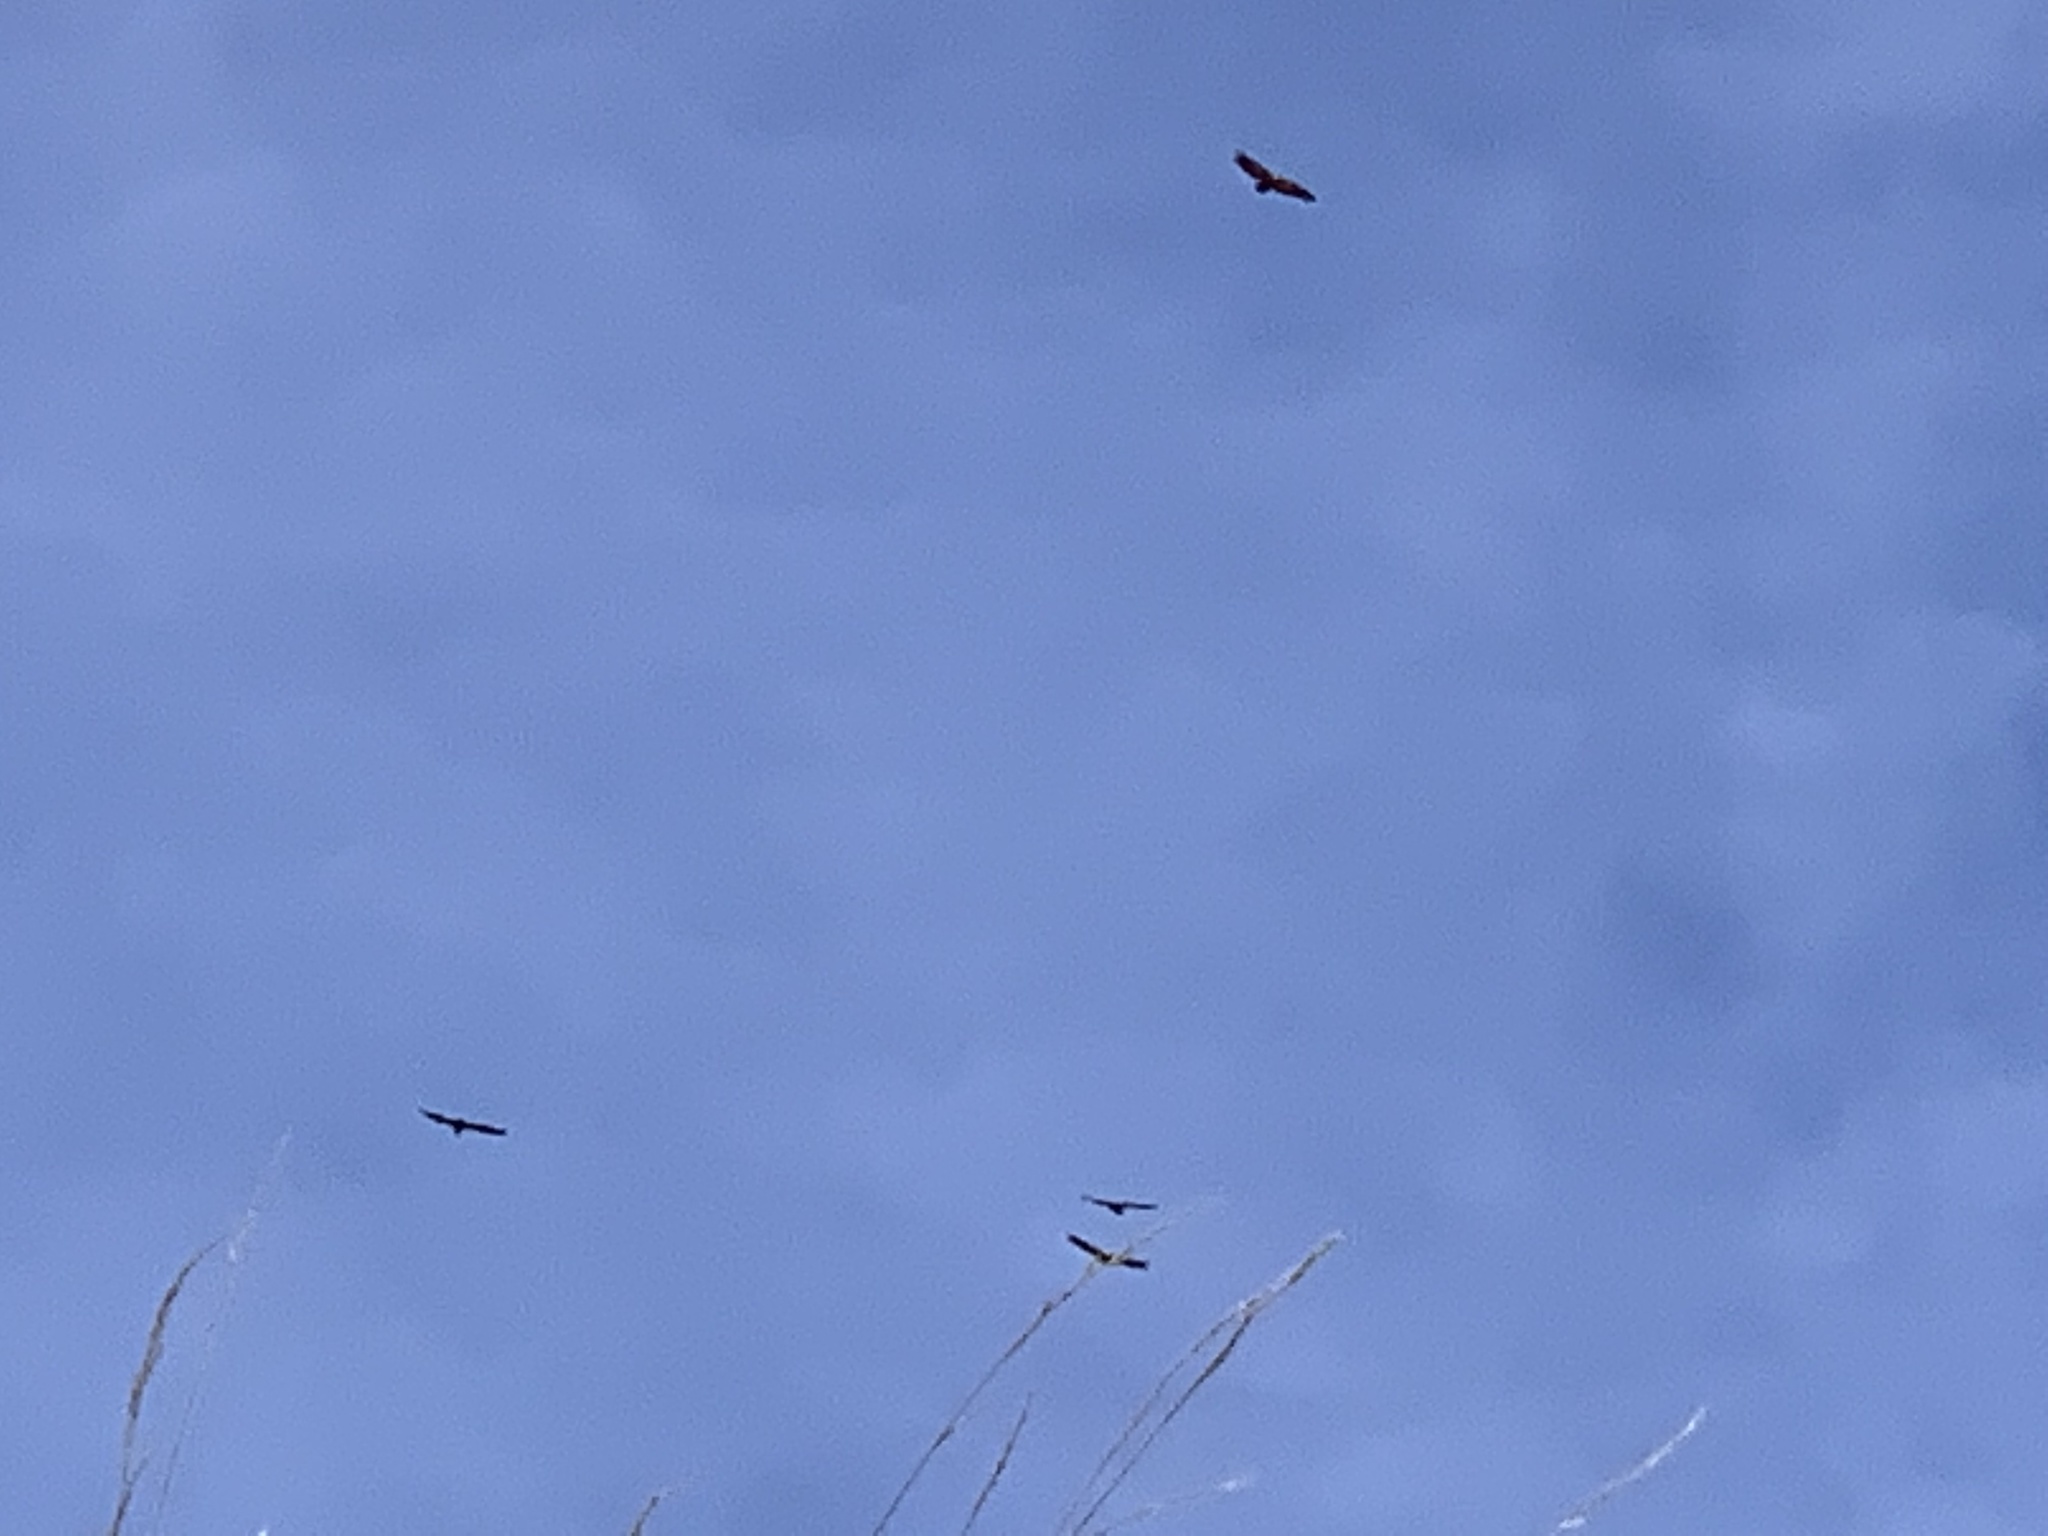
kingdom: Animalia
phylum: Chordata
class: Aves
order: Accipitriformes
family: Accipitridae
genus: Gyps
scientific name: Gyps fulvus
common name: Griffon vulture
